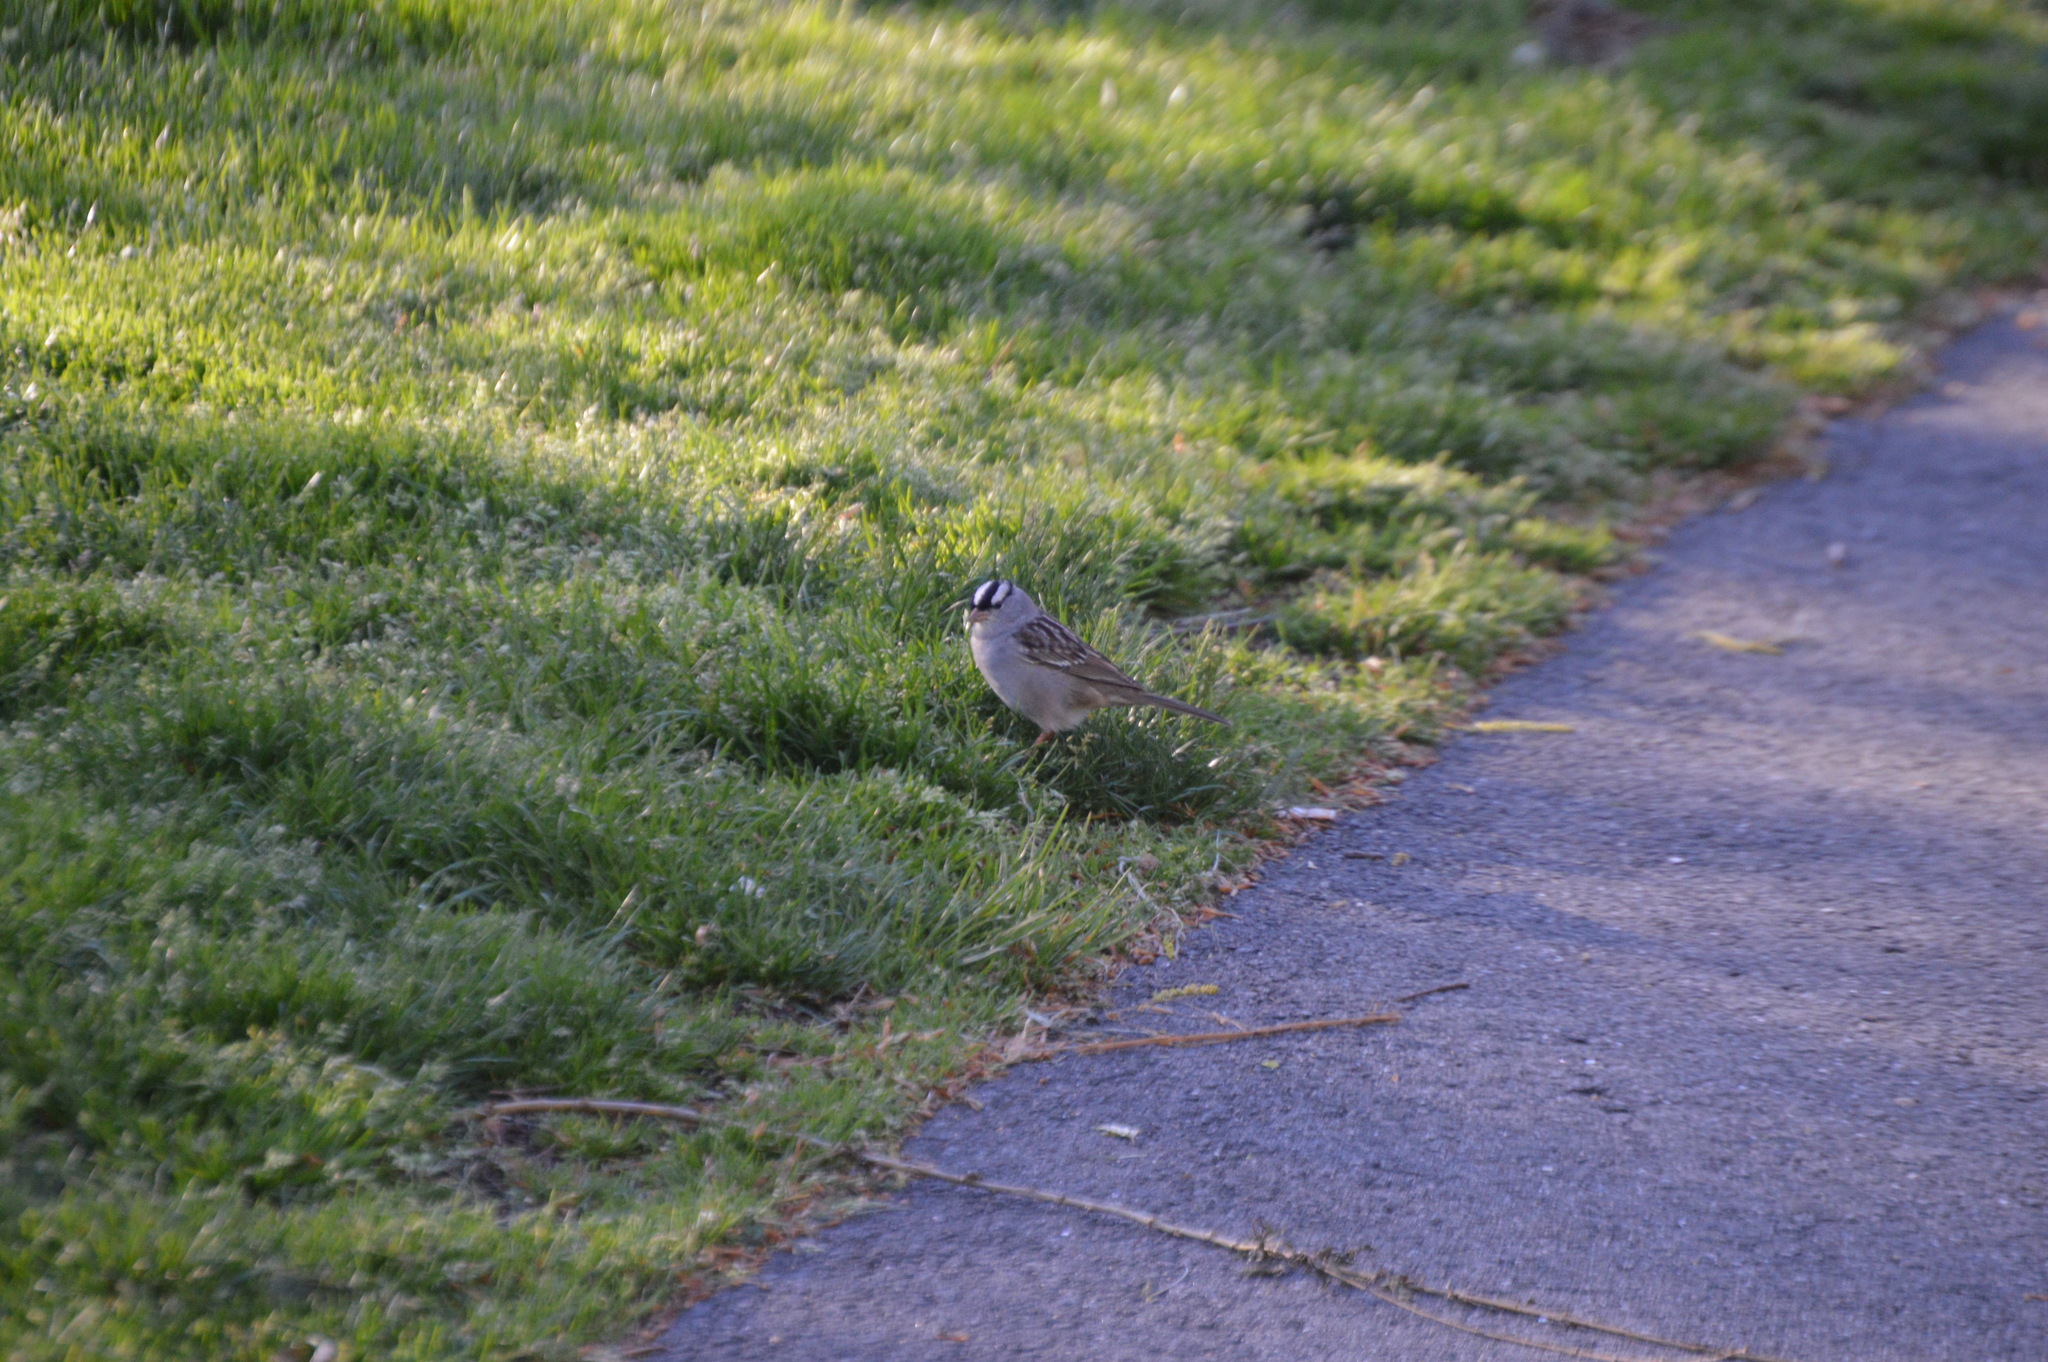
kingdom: Animalia
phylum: Chordata
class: Aves
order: Passeriformes
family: Passerellidae
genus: Zonotrichia
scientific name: Zonotrichia leucophrys
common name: White-crowned sparrow
